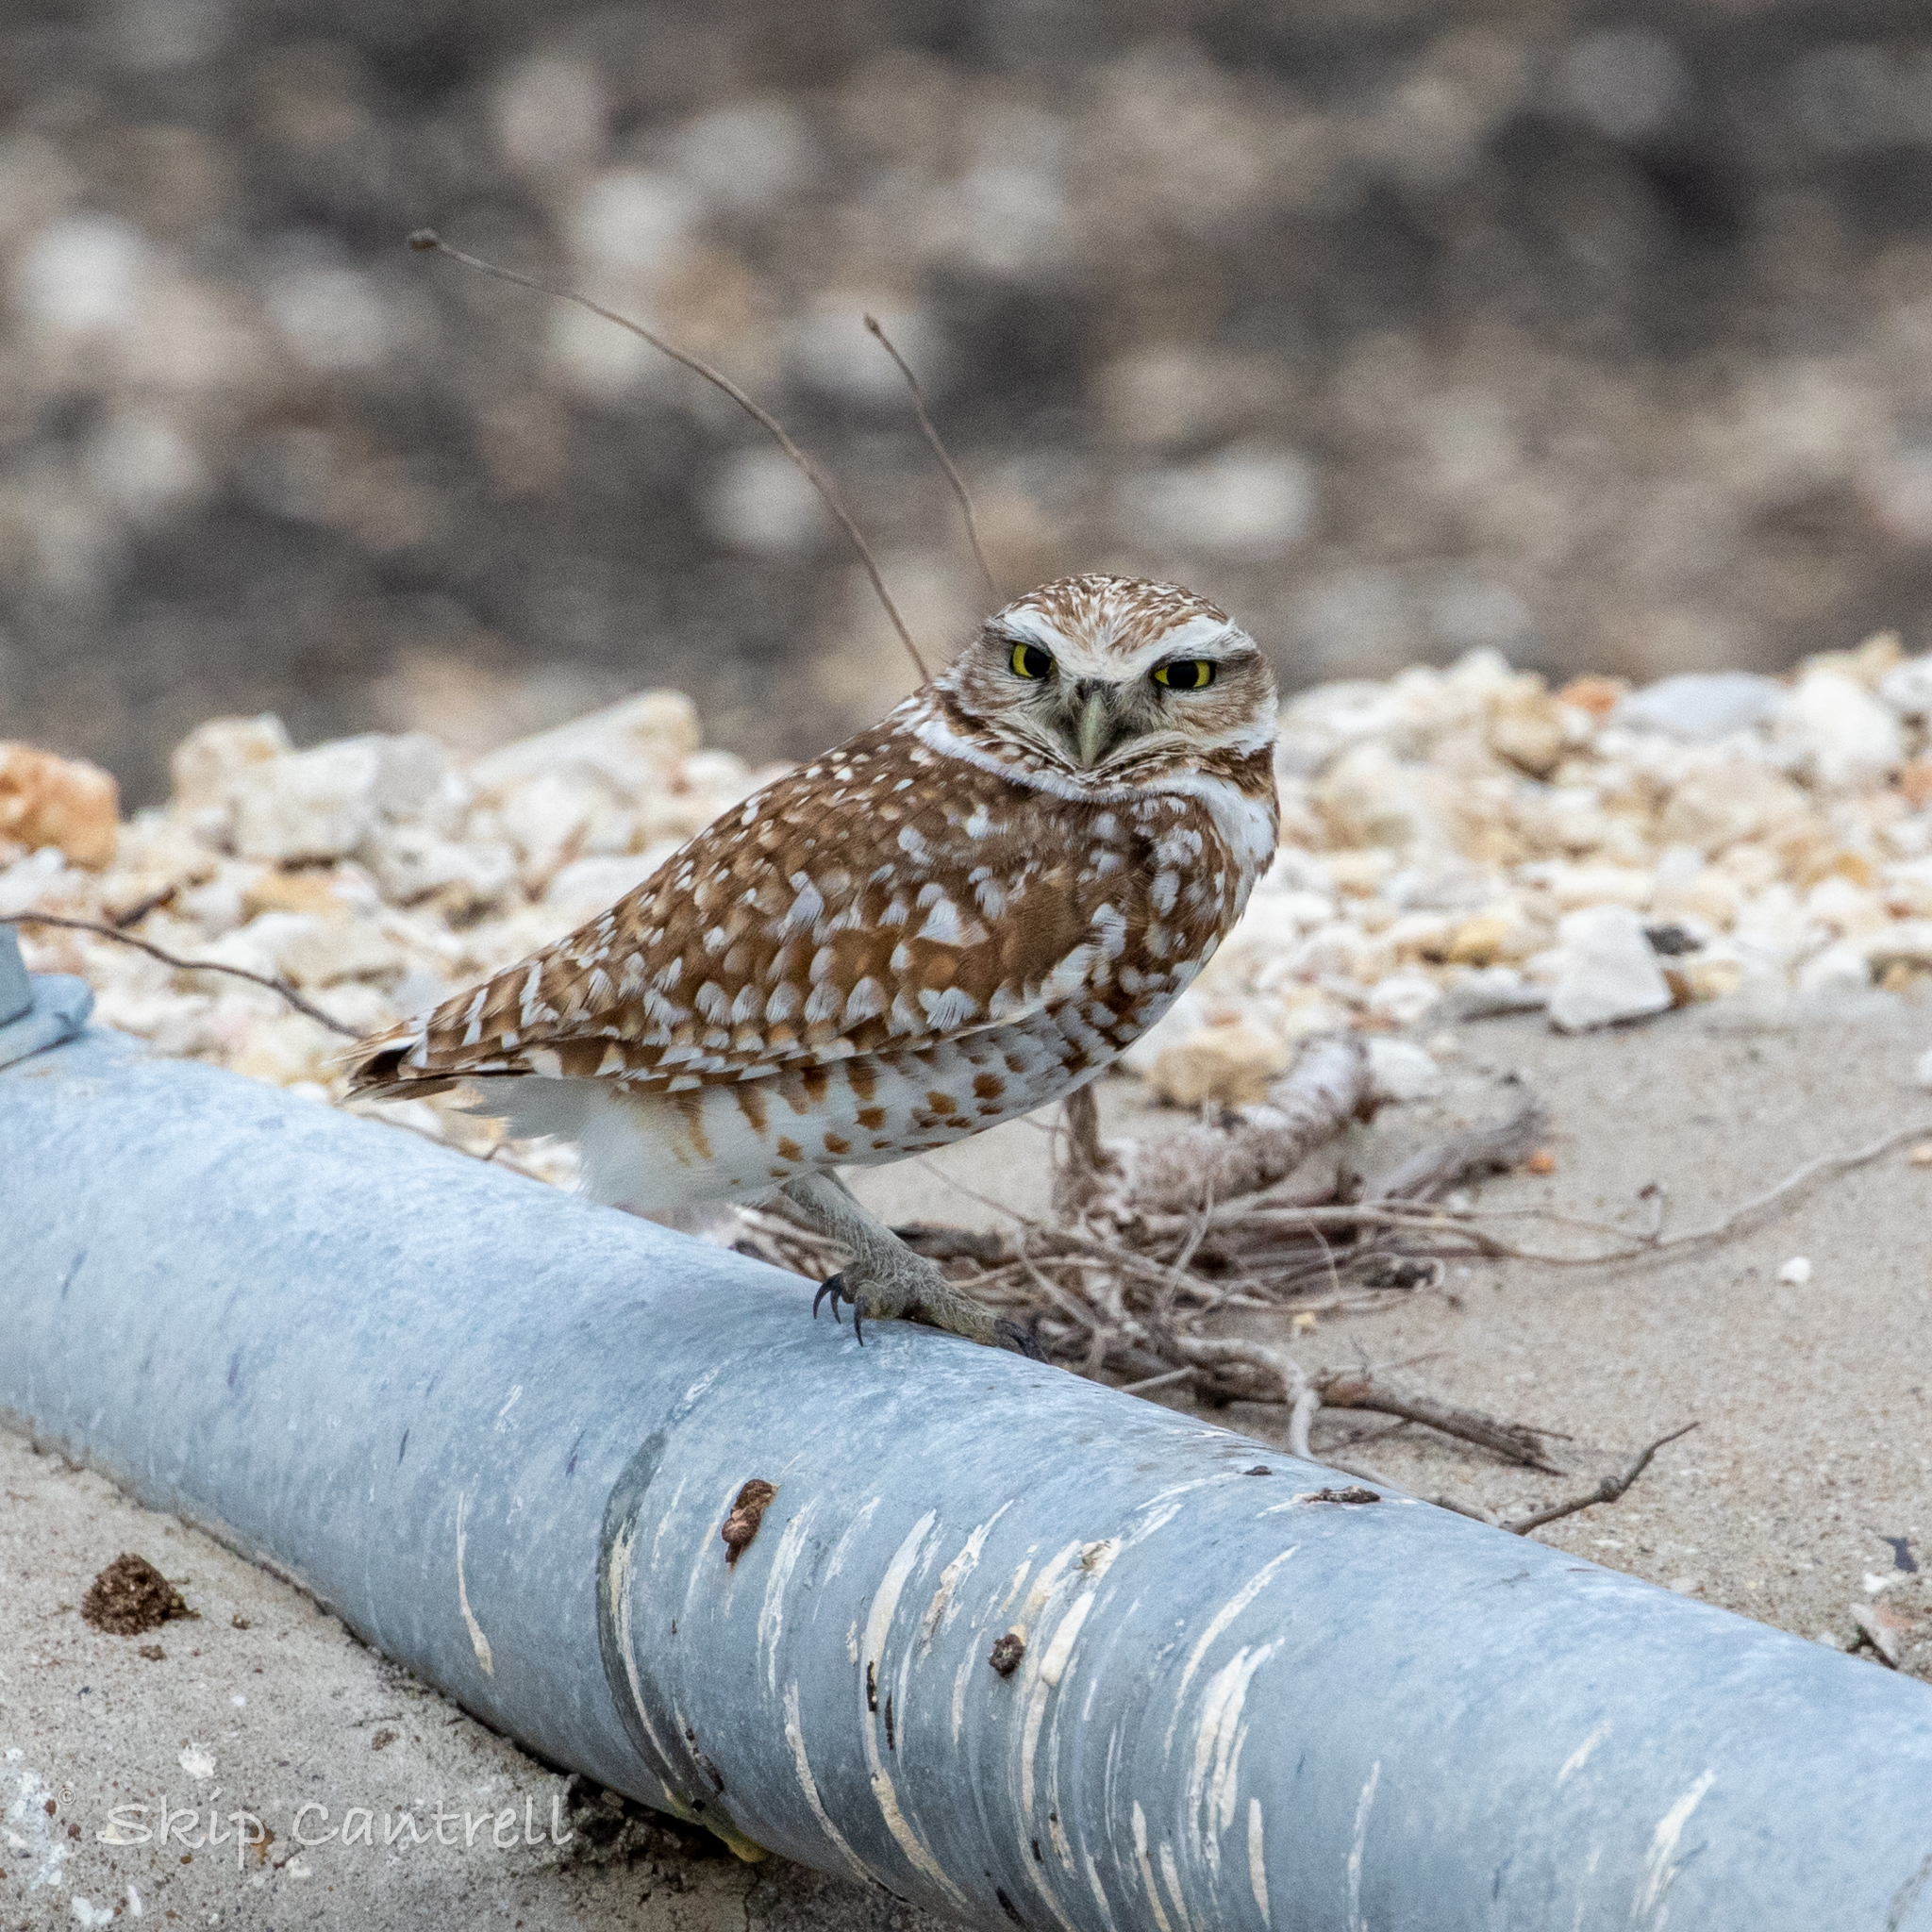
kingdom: Animalia
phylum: Chordata
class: Aves
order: Strigiformes
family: Strigidae
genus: Athene
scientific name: Athene cunicularia
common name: Burrowing owl
